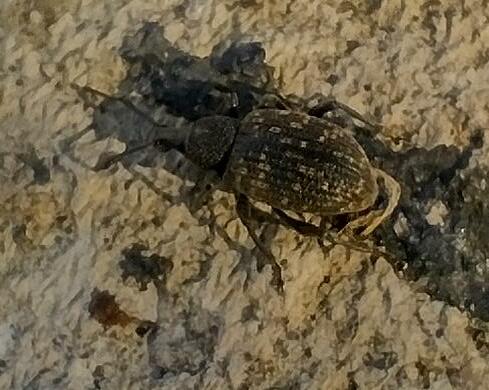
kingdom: Animalia
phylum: Arthropoda
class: Insecta
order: Coleoptera
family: Curculionidae
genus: Otiorhynchus
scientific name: Otiorhynchus sulcatus
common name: Black vine weevil
